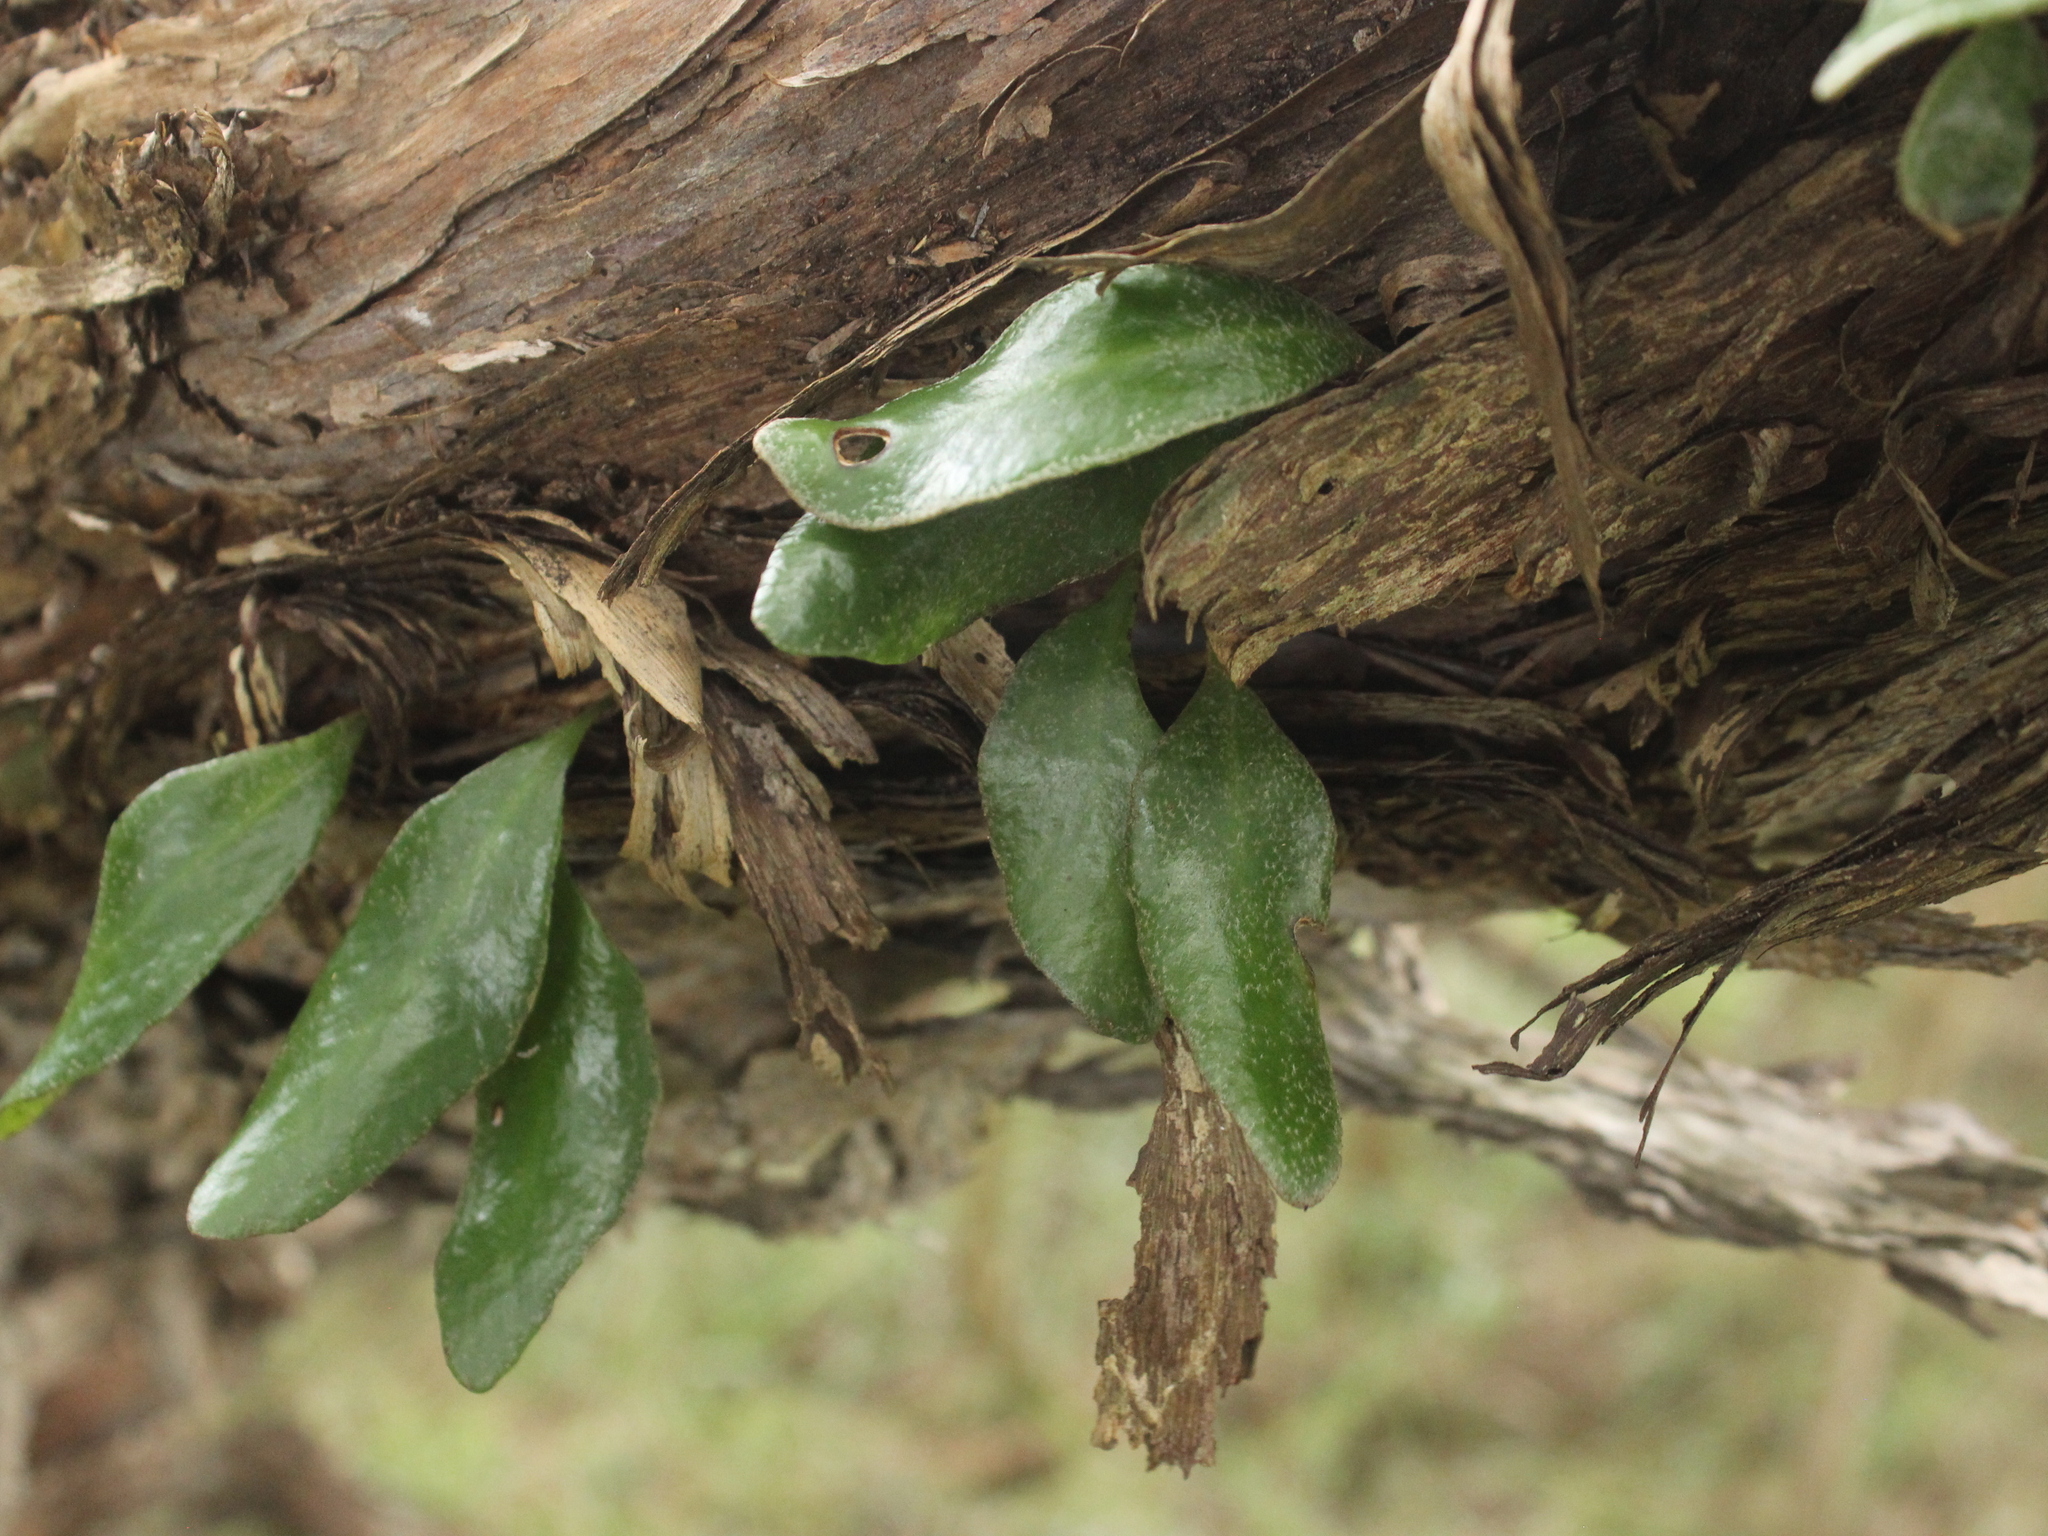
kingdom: Plantae
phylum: Tracheophyta
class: Polypodiopsida
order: Polypodiales
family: Polypodiaceae
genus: Pyrrosia
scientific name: Pyrrosia eleagnifolia
